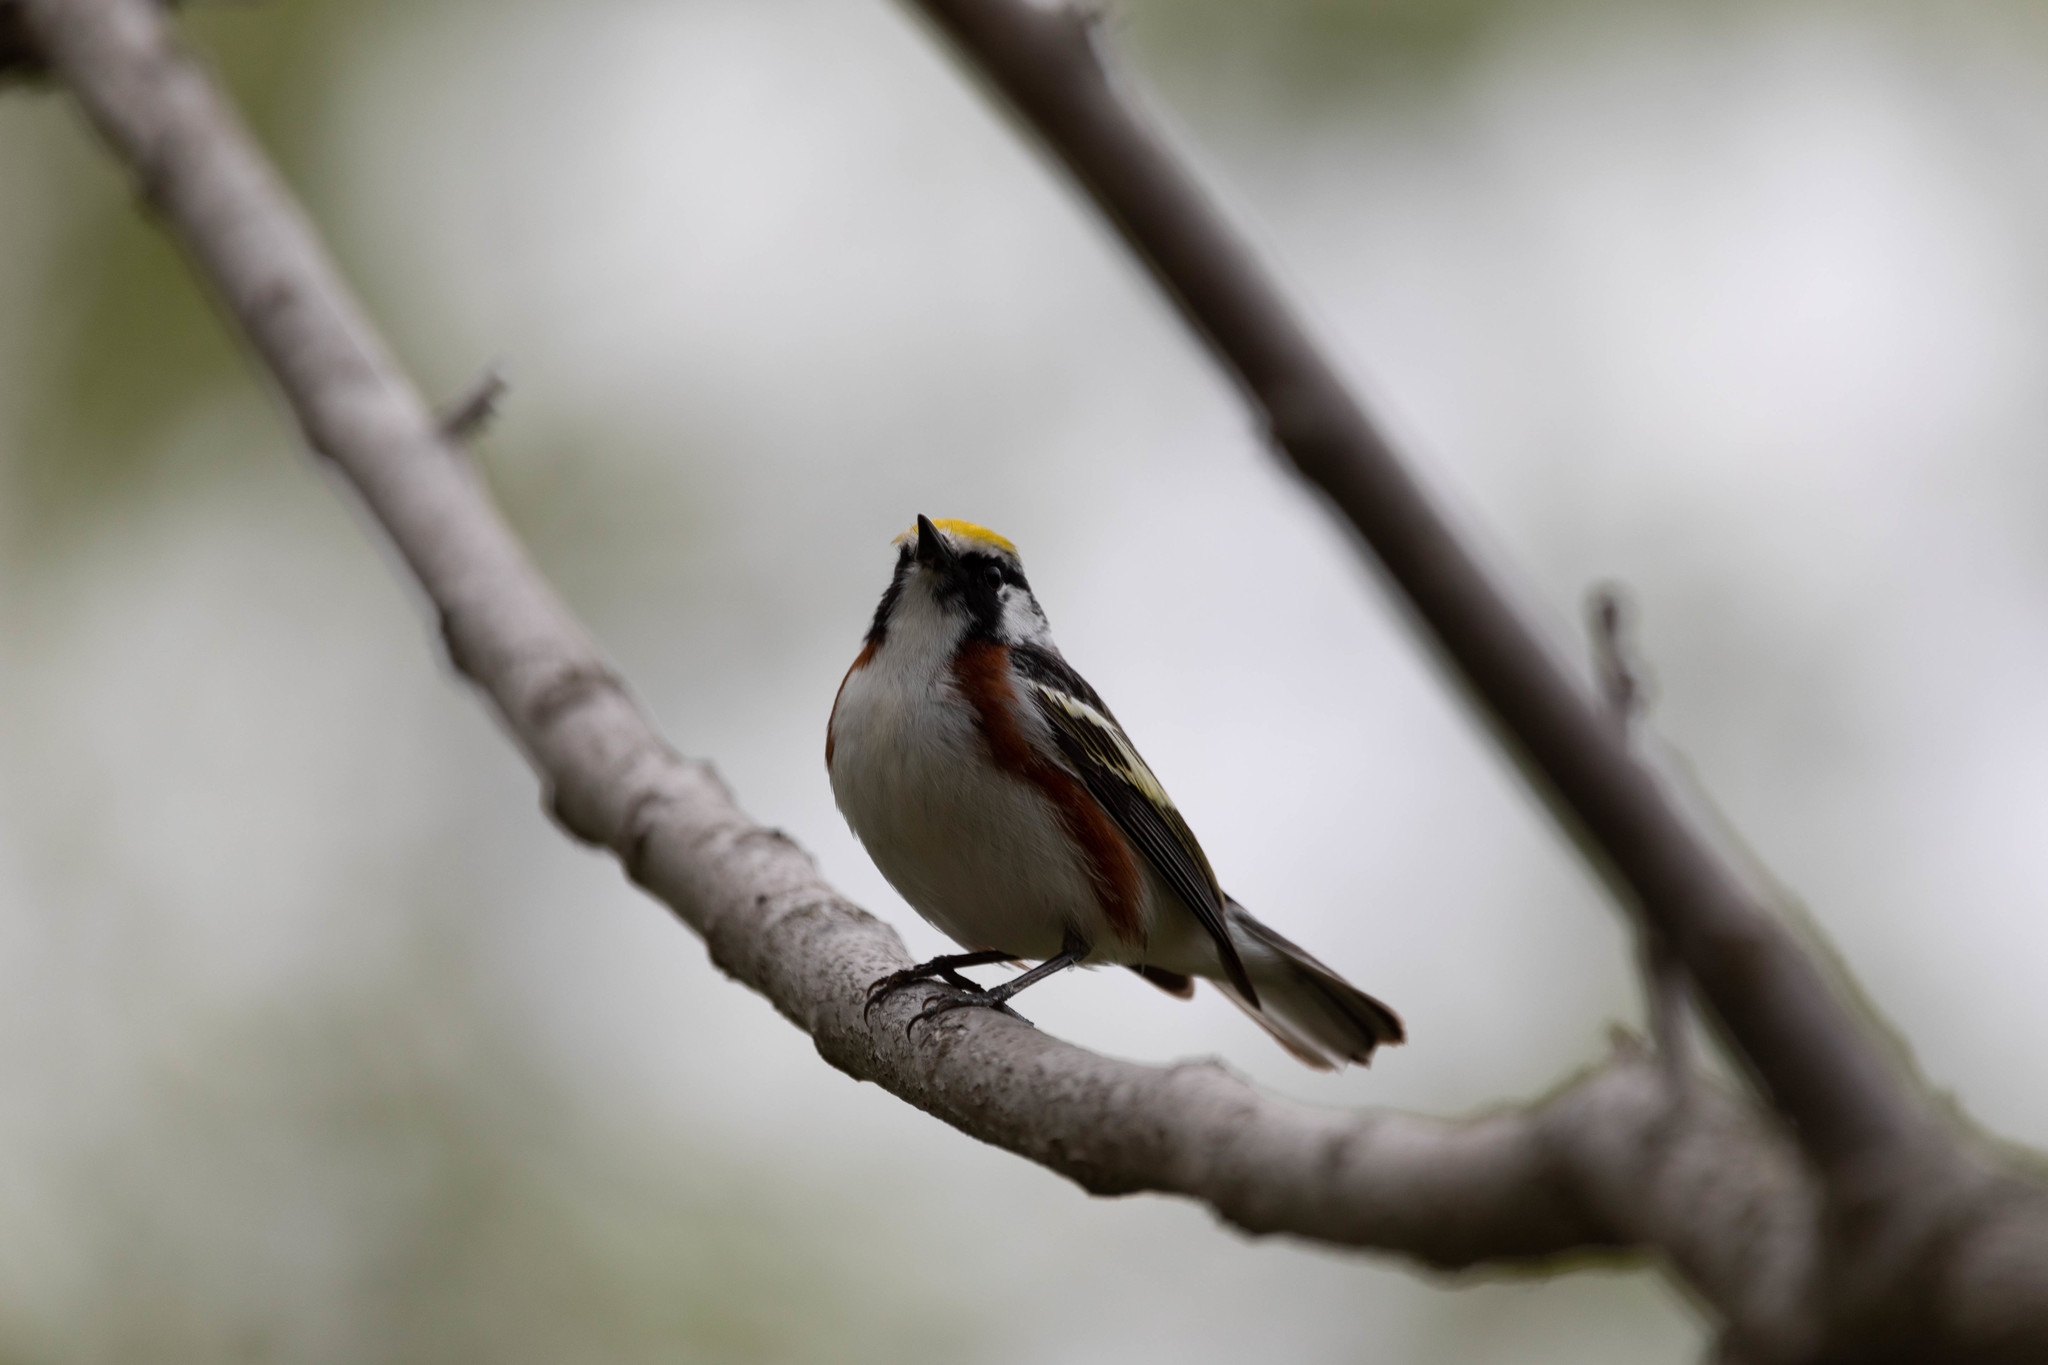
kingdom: Animalia
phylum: Chordata
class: Aves
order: Passeriformes
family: Parulidae
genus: Setophaga
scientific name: Setophaga pensylvanica
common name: Chestnut-sided warbler
